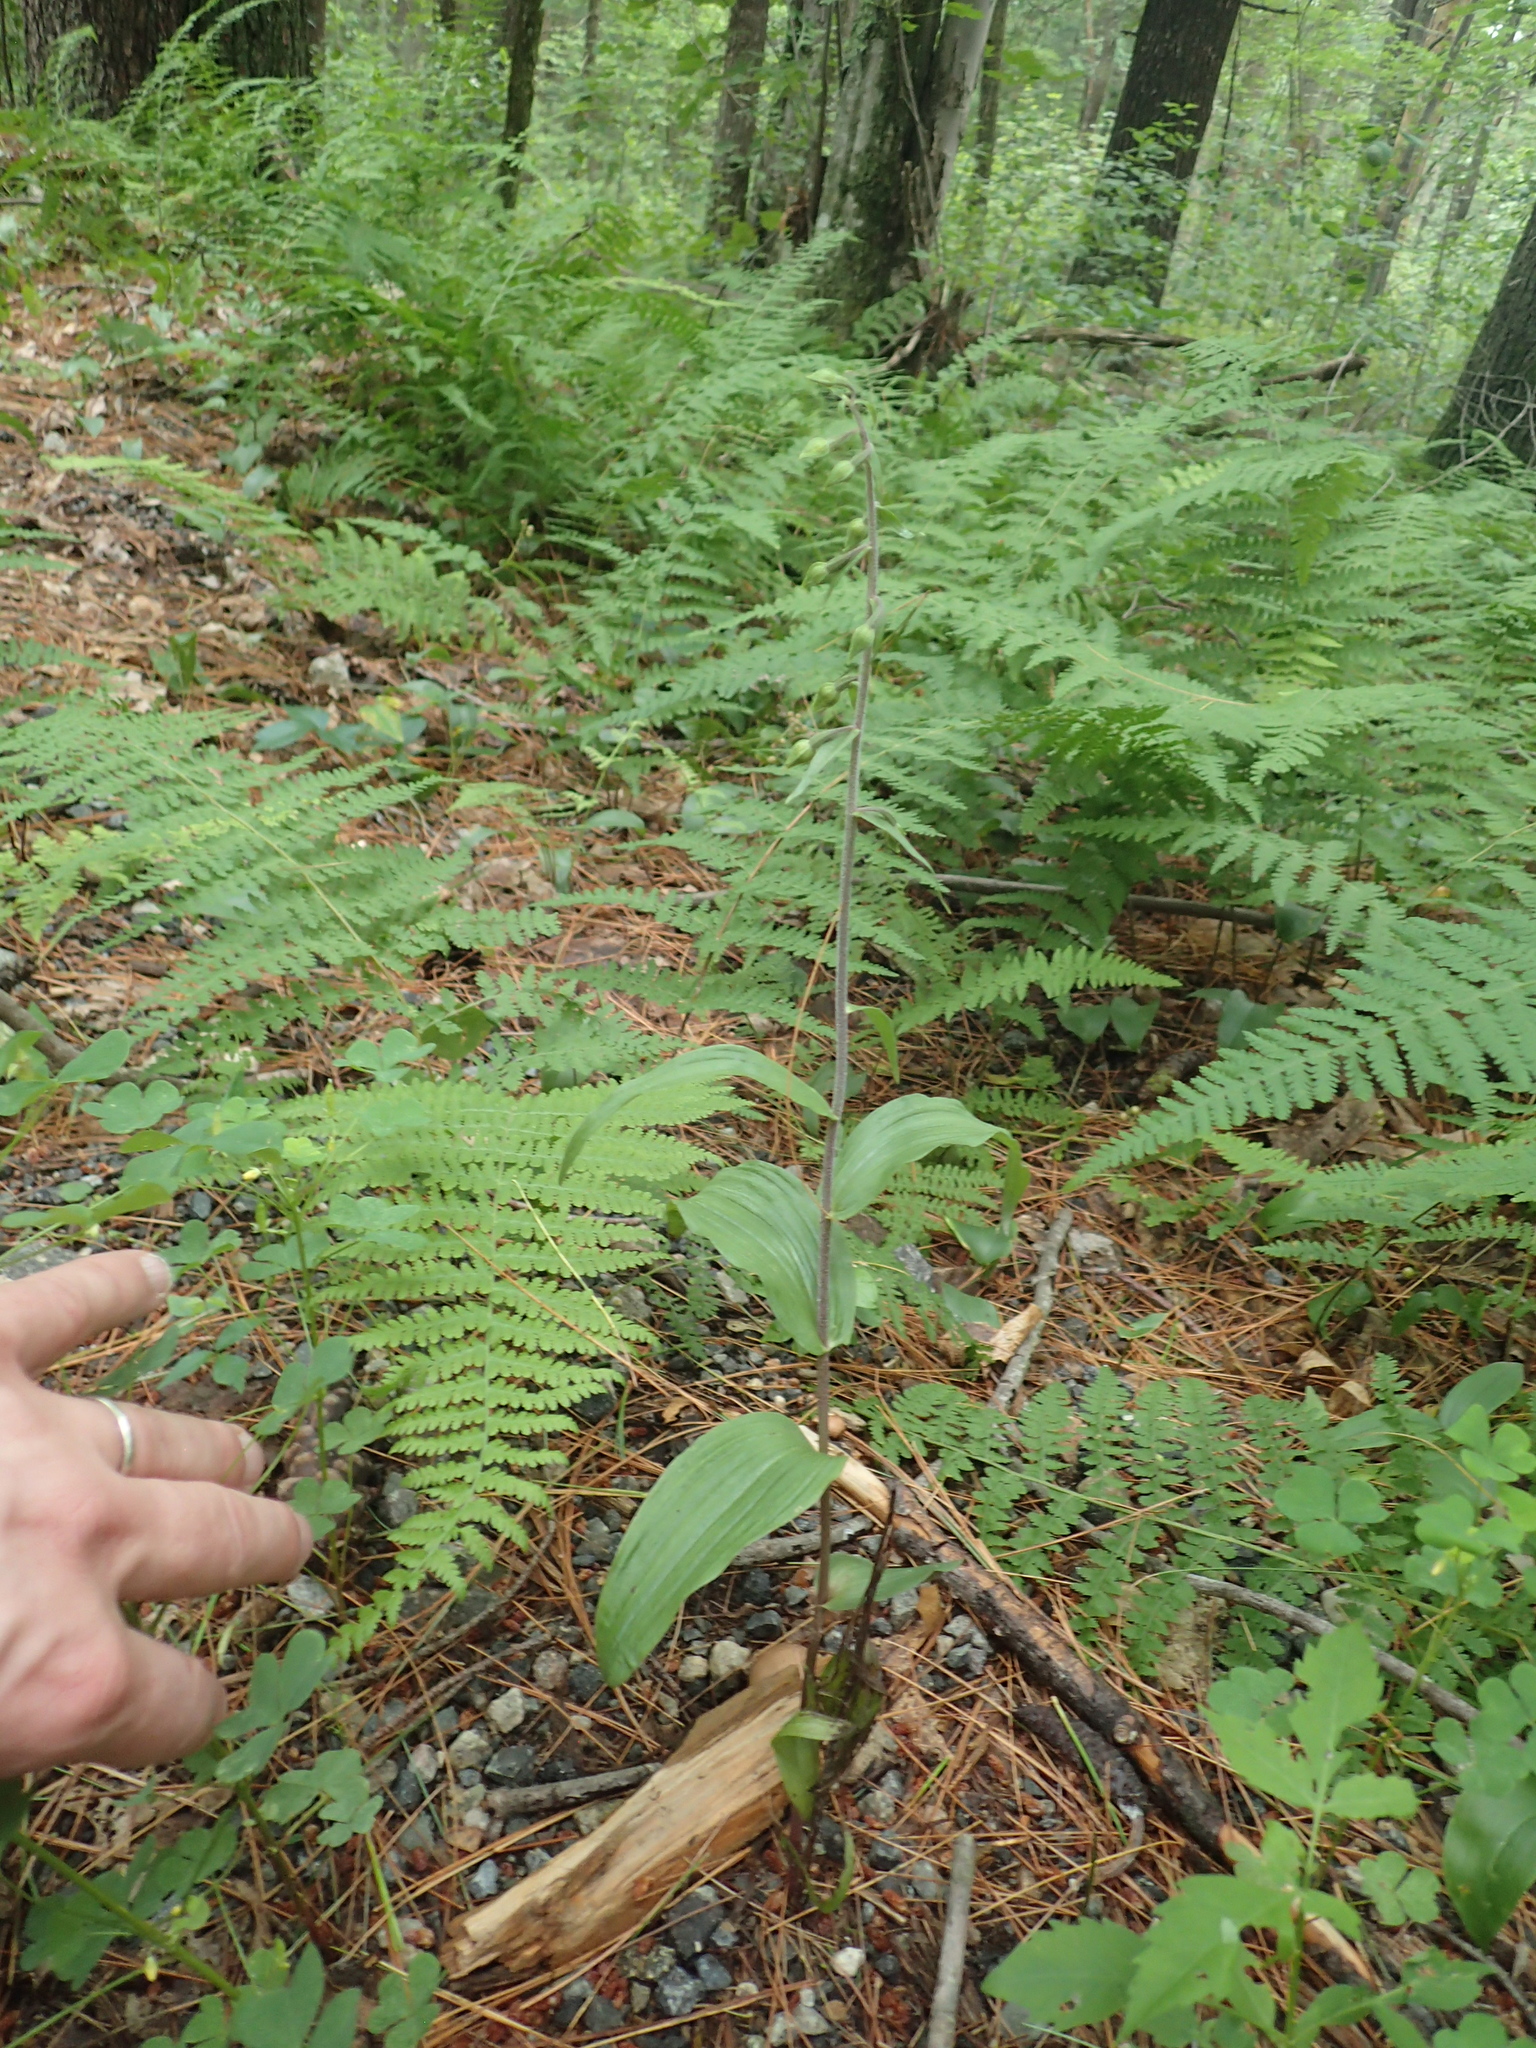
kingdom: Plantae
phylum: Tracheophyta
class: Liliopsida
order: Asparagales
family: Orchidaceae
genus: Epipactis
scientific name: Epipactis helleborine
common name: Broad-leaved helleborine
